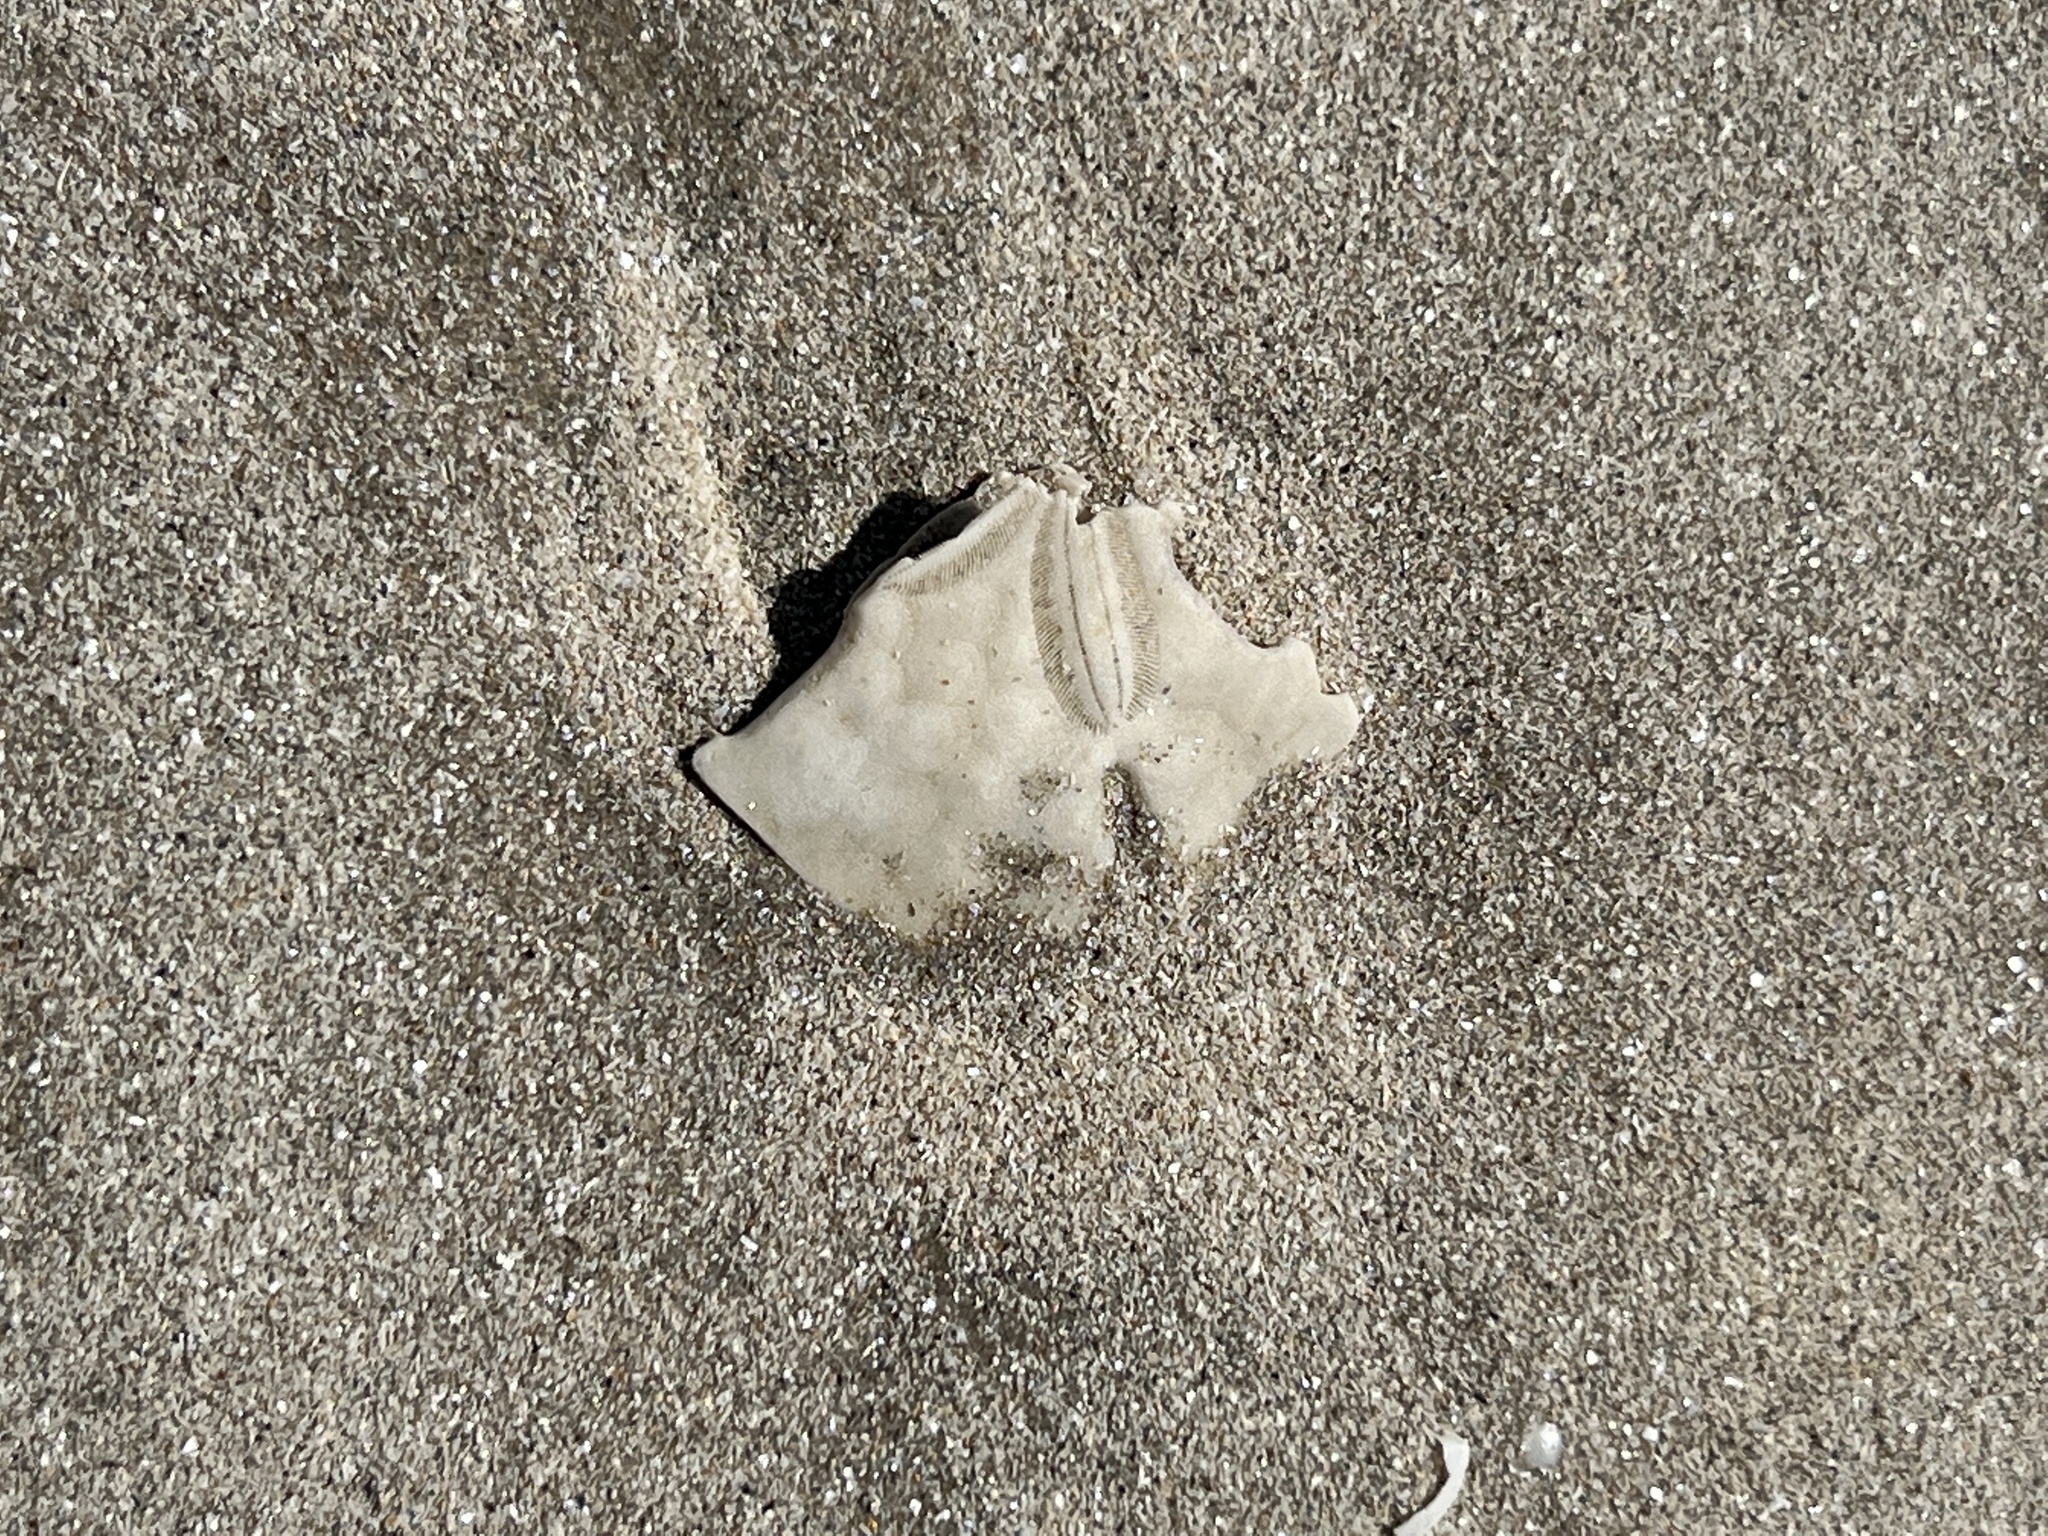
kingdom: Animalia
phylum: Echinodermata
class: Echinoidea
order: Echinolampadacea
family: Mellitidae
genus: Mellita
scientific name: Mellita quinquiesperforata
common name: Sand dollar
